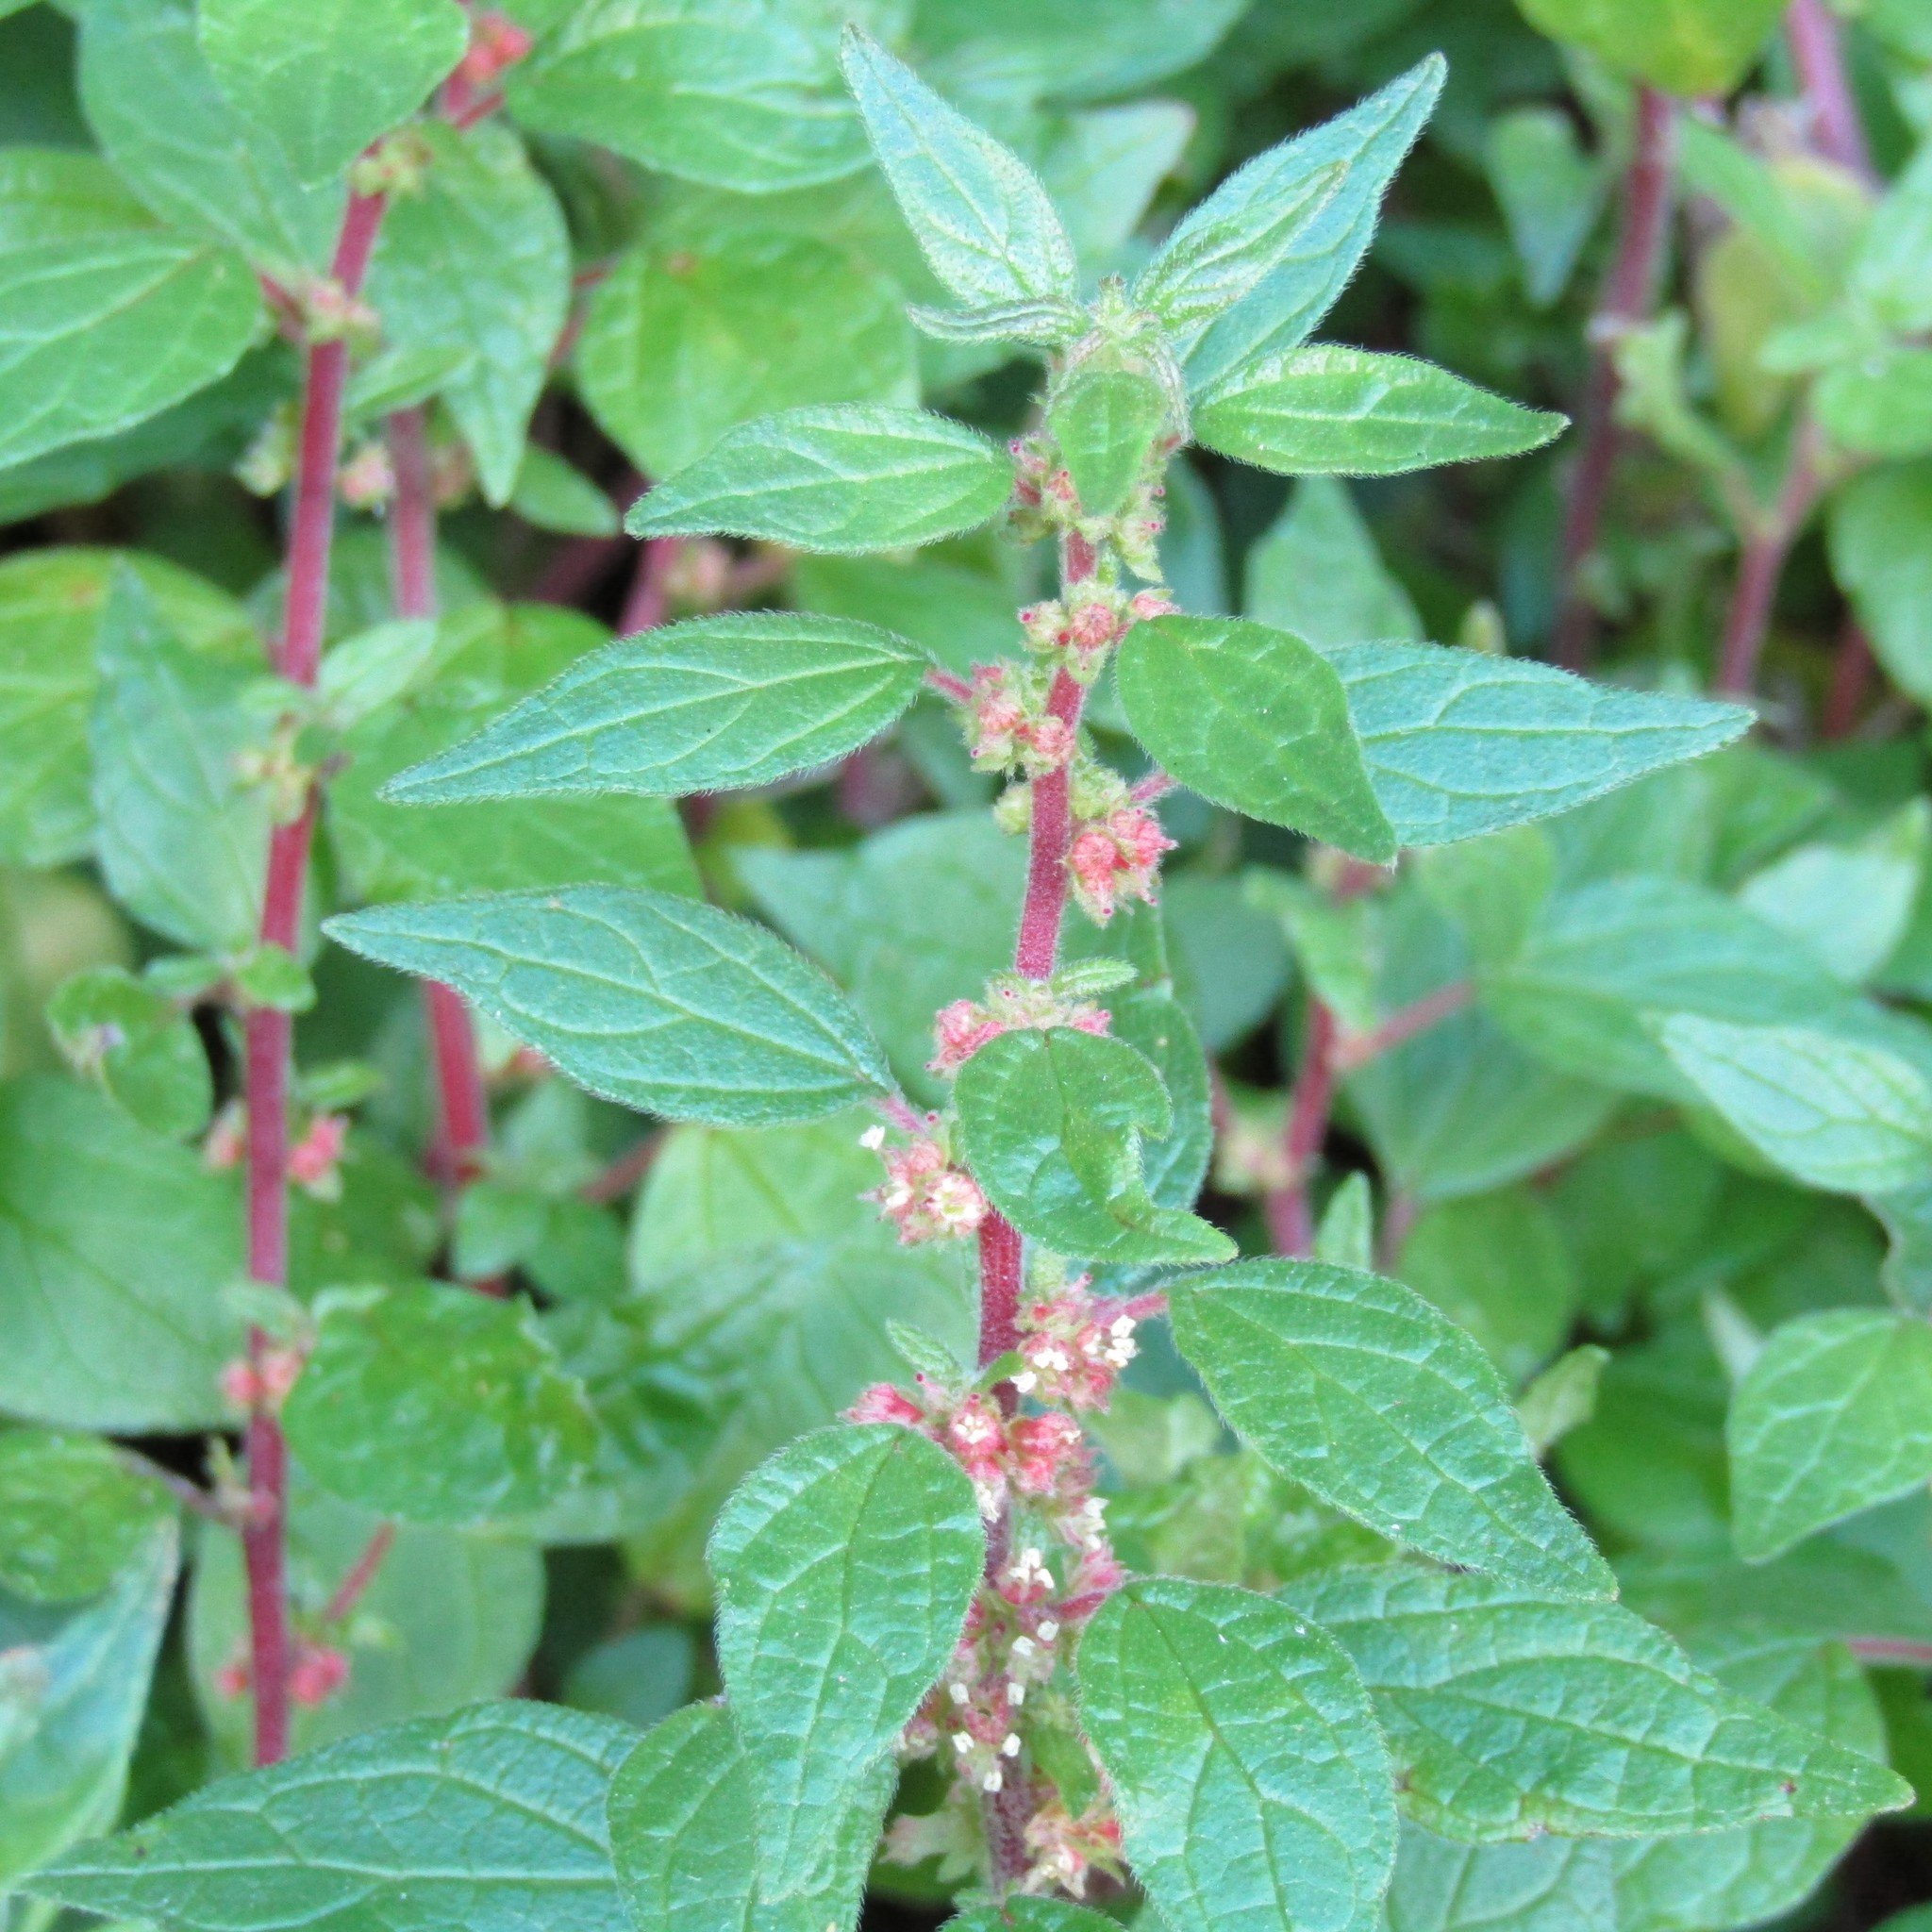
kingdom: Plantae
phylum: Tracheophyta
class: Magnoliopsida
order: Rosales
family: Urticaceae
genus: Parietaria
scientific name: Parietaria judaica
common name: Pellitory-of-the-wall
